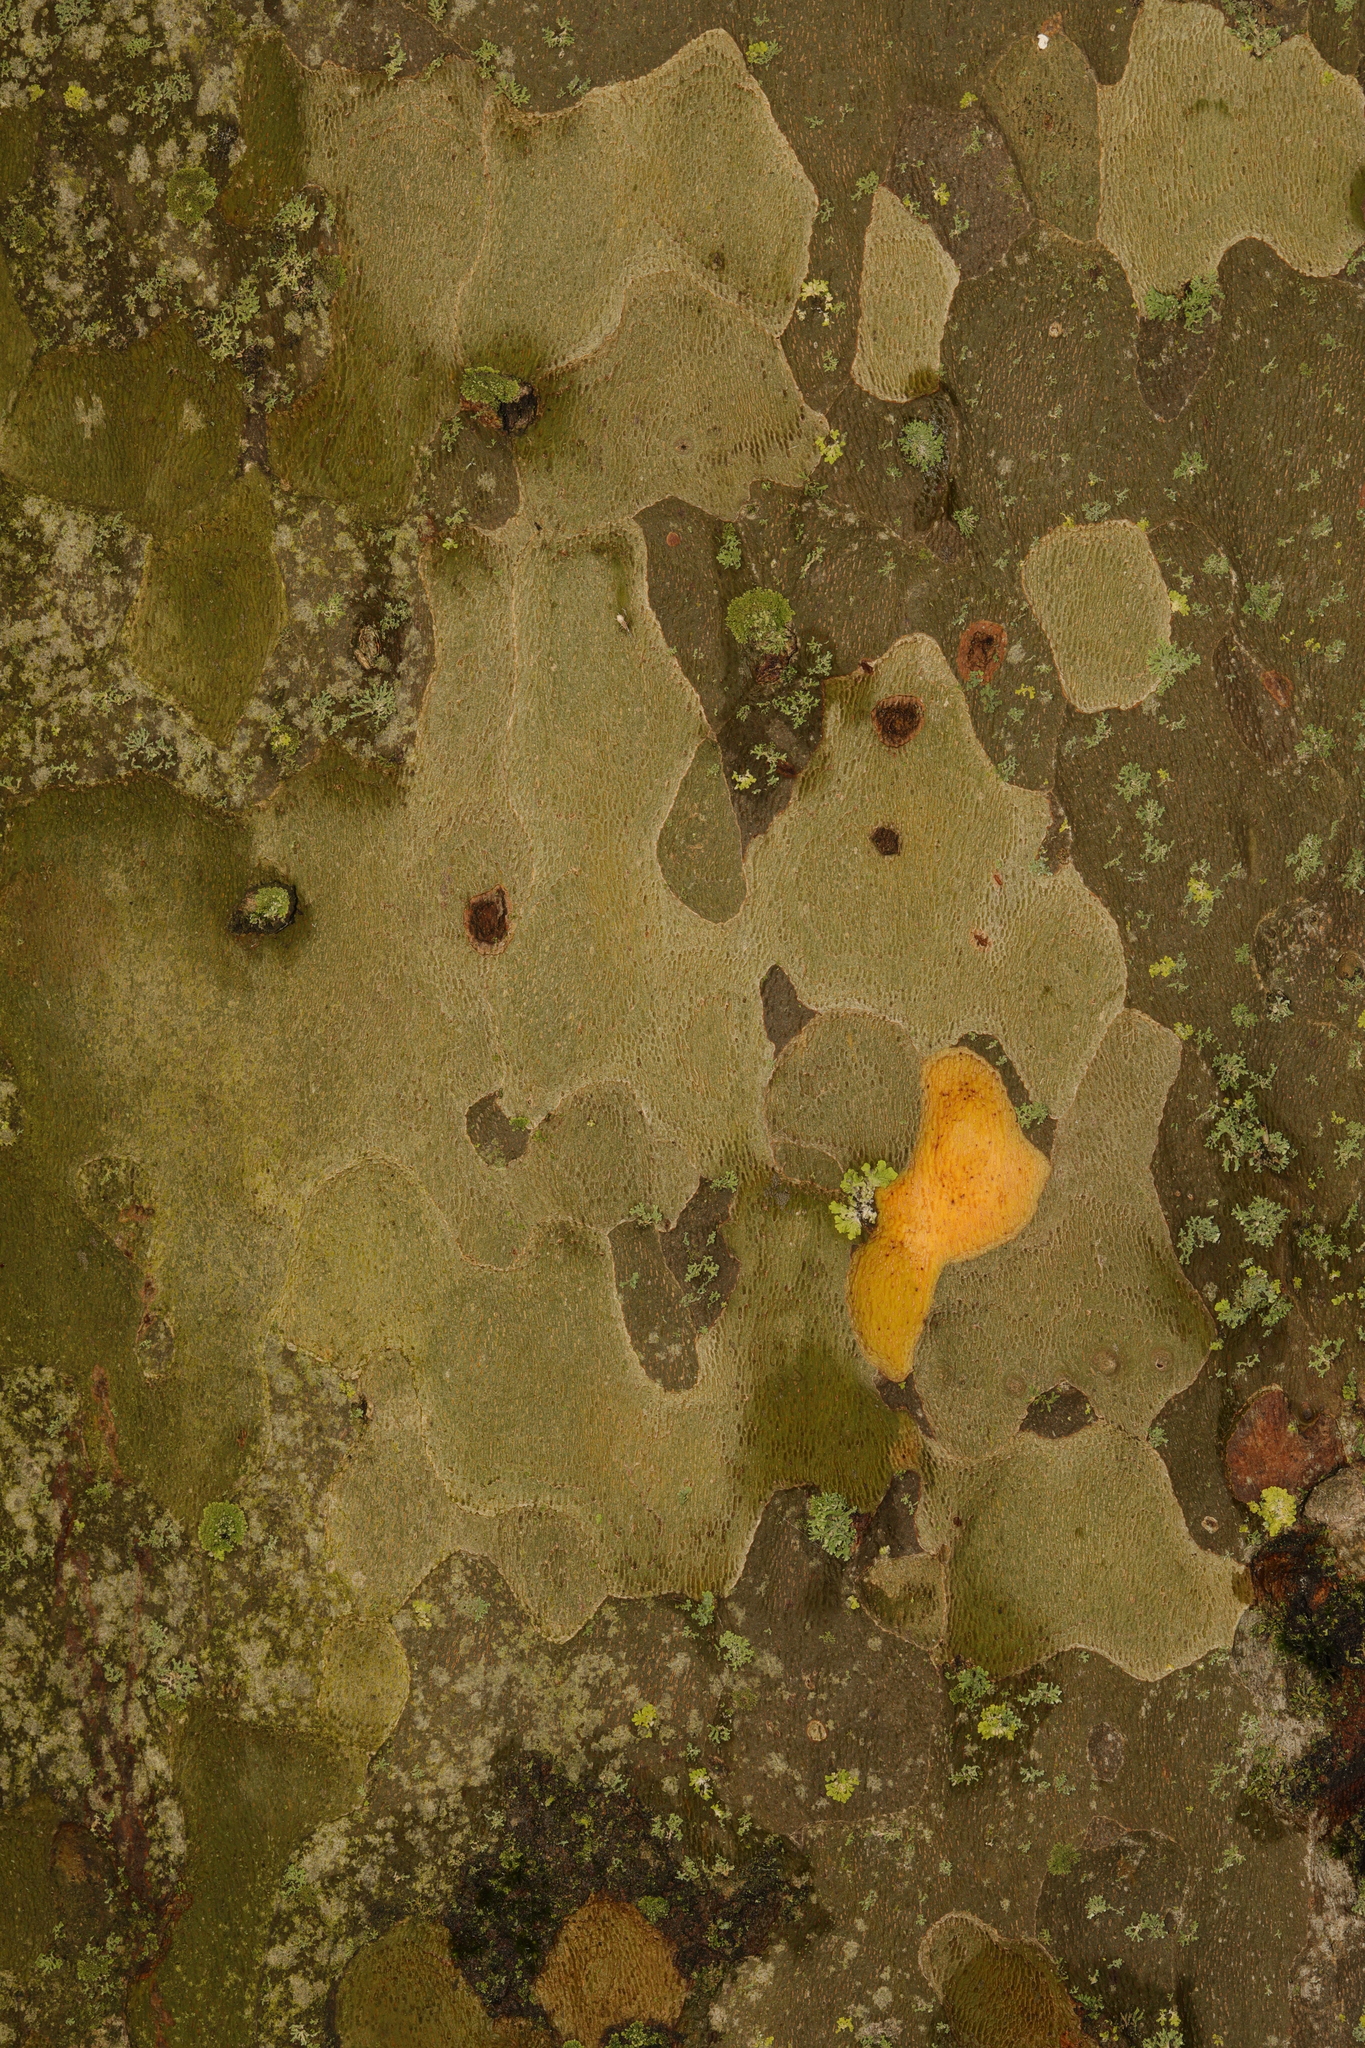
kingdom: Plantae
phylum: Tracheophyta
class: Magnoliopsida
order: Proteales
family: Platanaceae
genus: Platanus
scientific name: Platanus hispanica
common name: London plane
